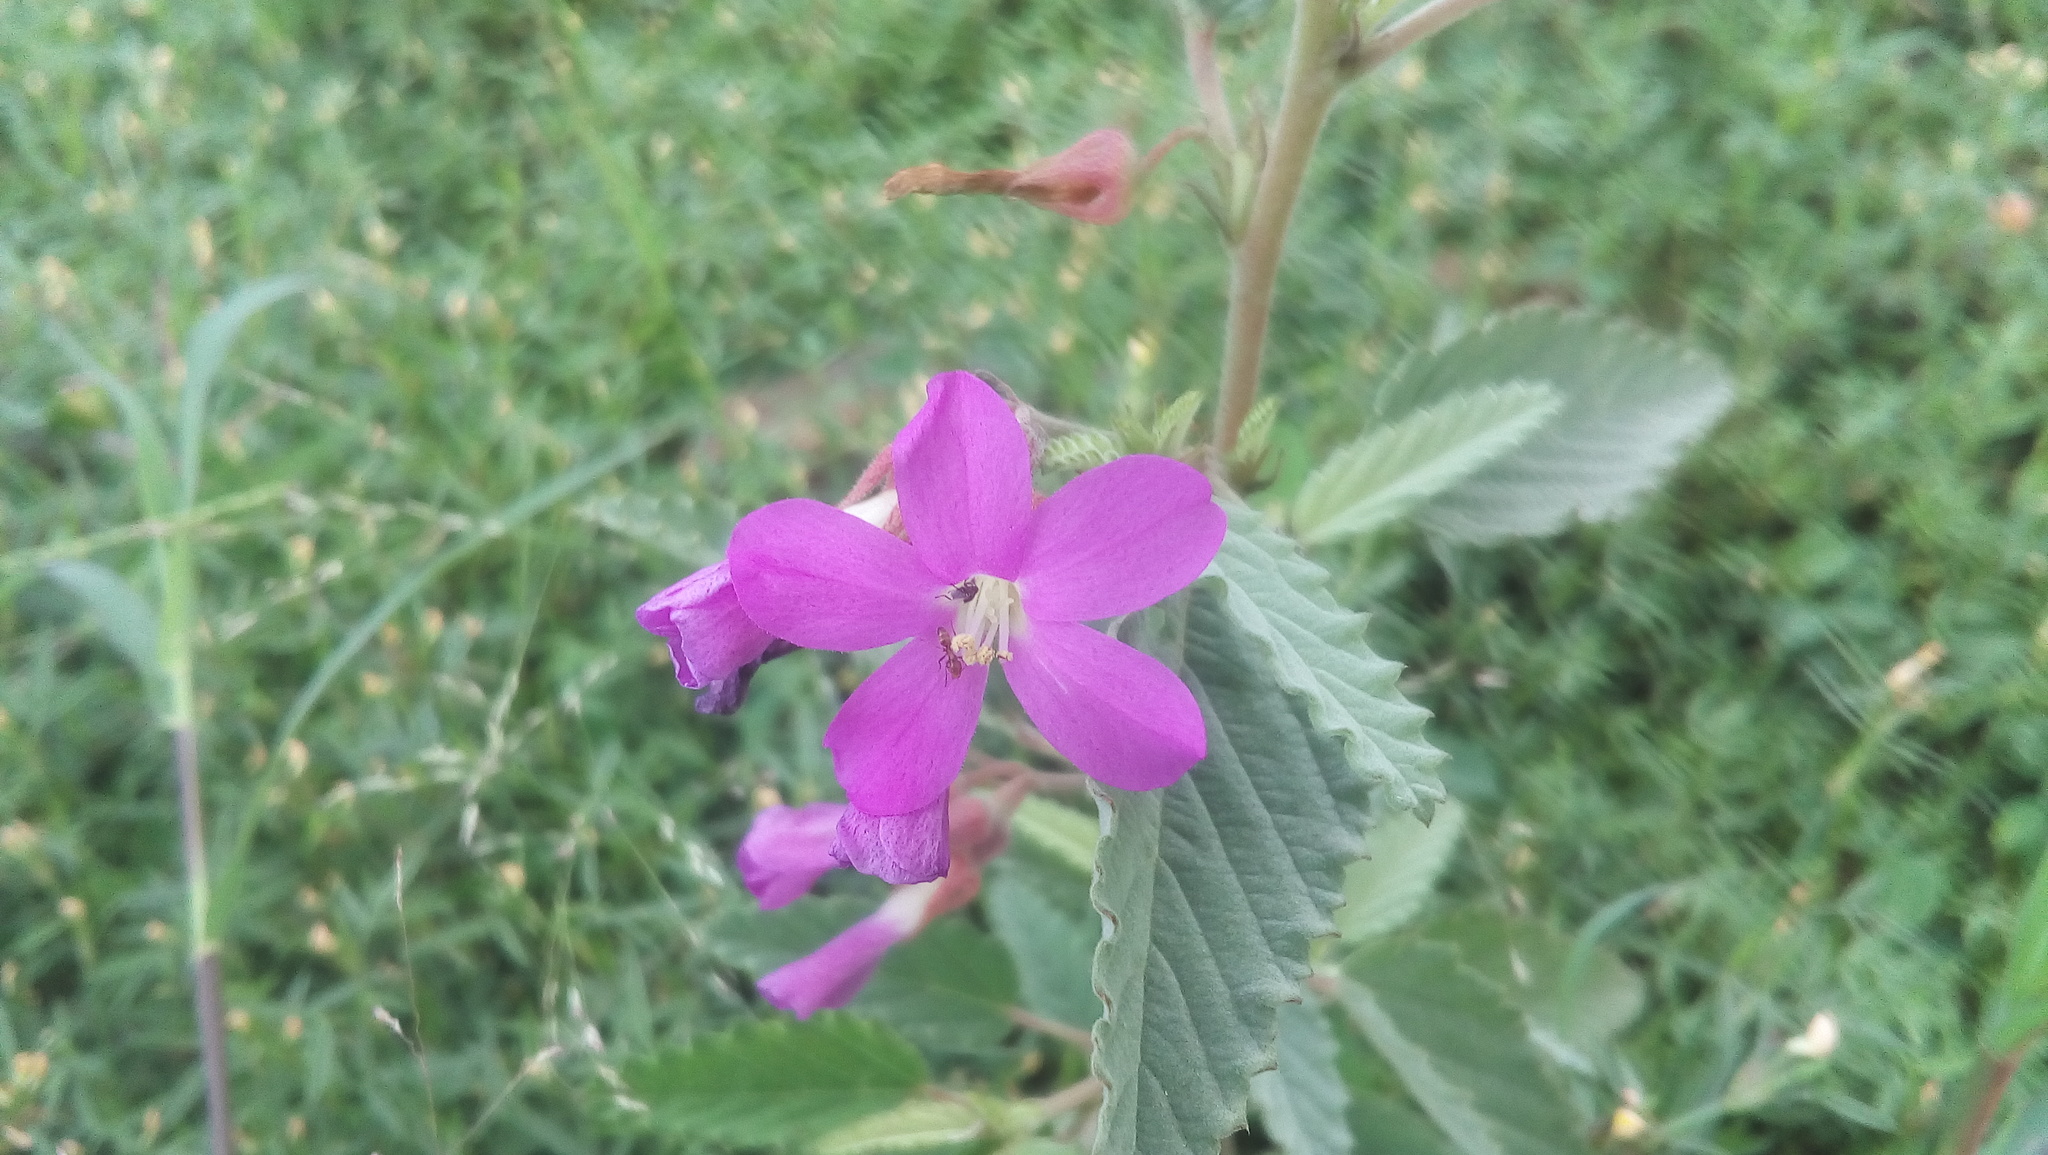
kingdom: Plantae
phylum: Tracheophyta
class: Magnoliopsida
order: Malvales
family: Malvaceae
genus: Melochia
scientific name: Melochia tomentosa
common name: Black torch
